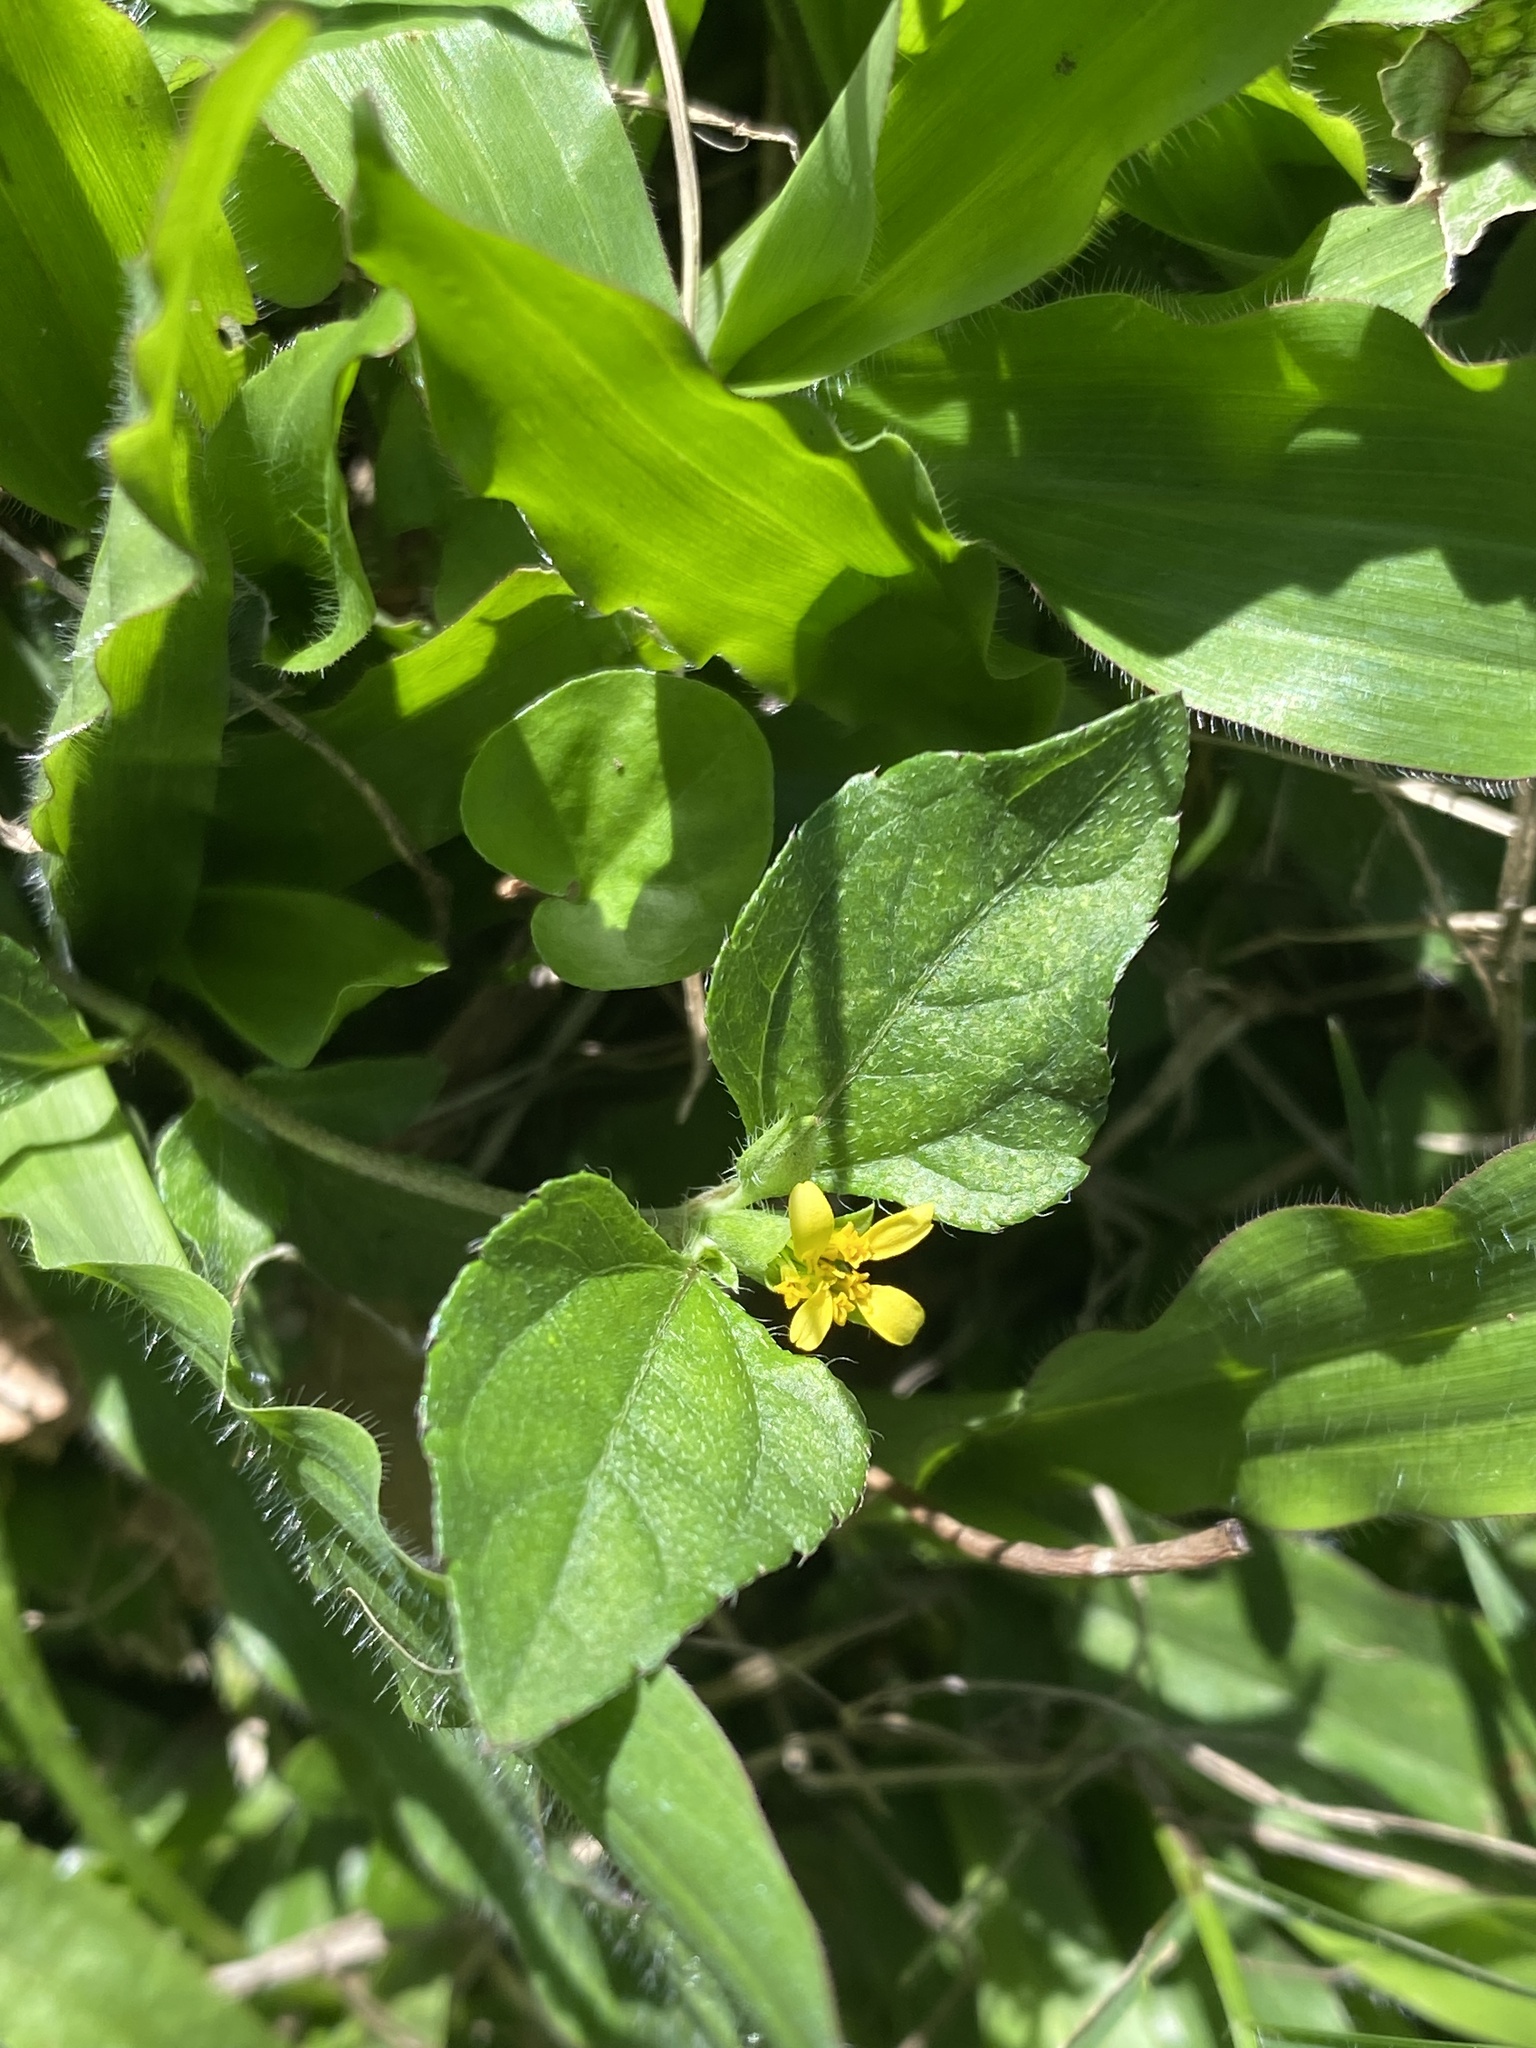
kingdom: Plantae
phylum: Tracheophyta
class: Magnoliopsida
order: Asterales
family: Asteraceae
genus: Calyptocarpus
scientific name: Calyptocarpus vialis
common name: Straggler daisy
